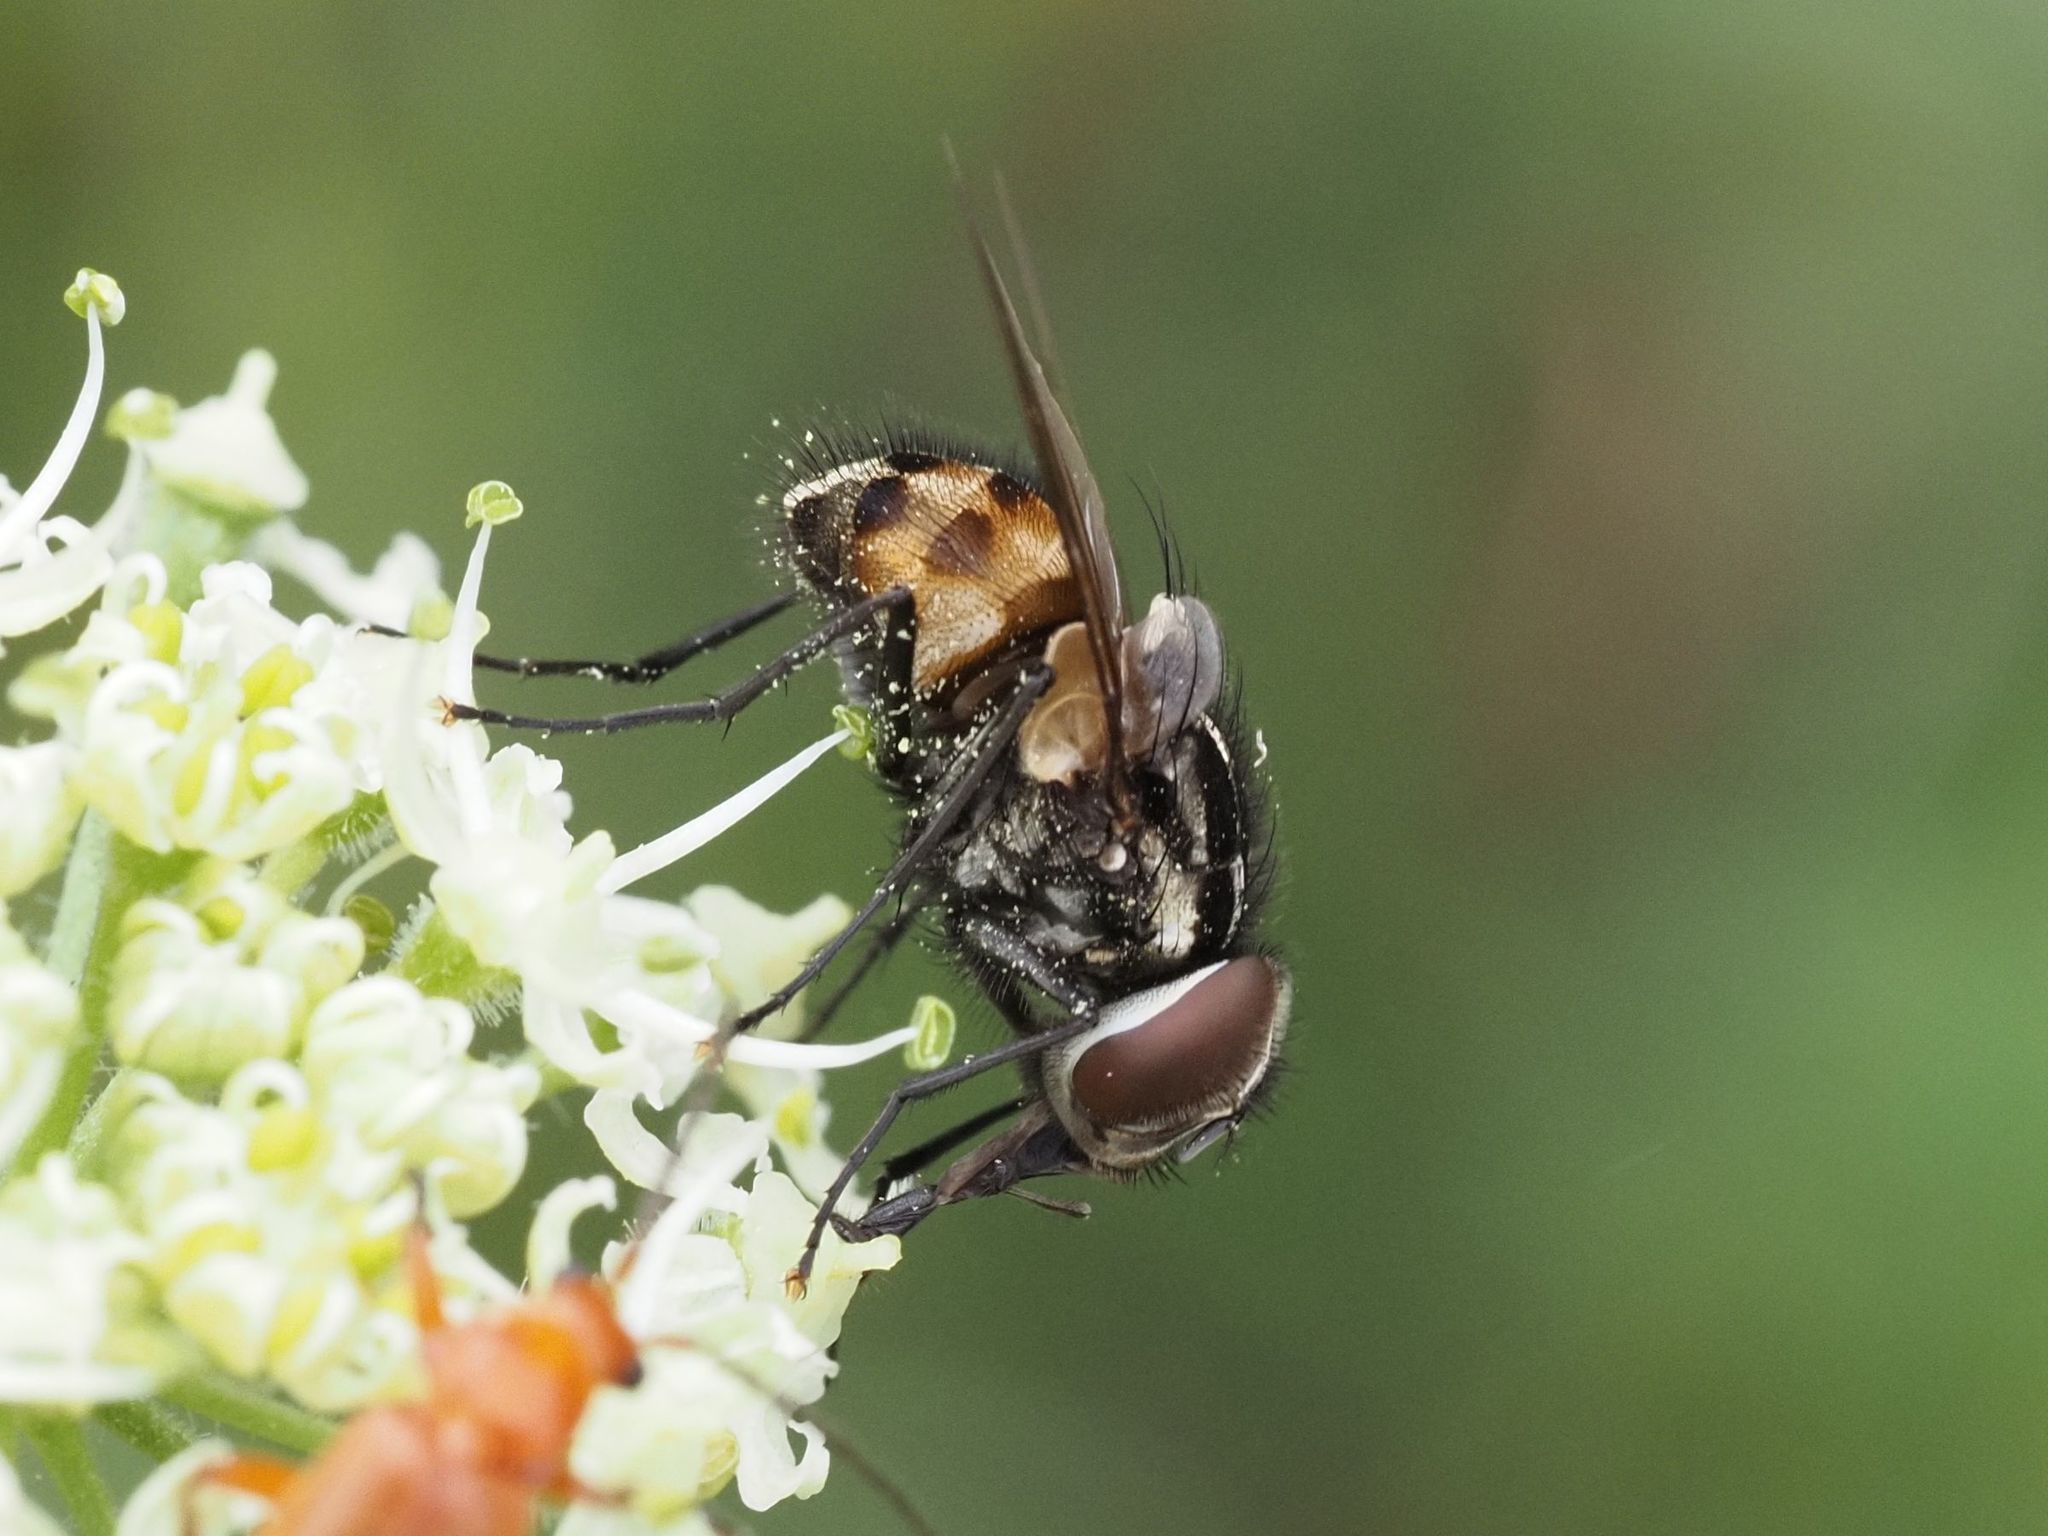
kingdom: Animalia
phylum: Arthropoda
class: Insecta
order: Diptera
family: Muscidae
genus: Graphomya
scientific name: Graphomya maculata
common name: Muscid fly
